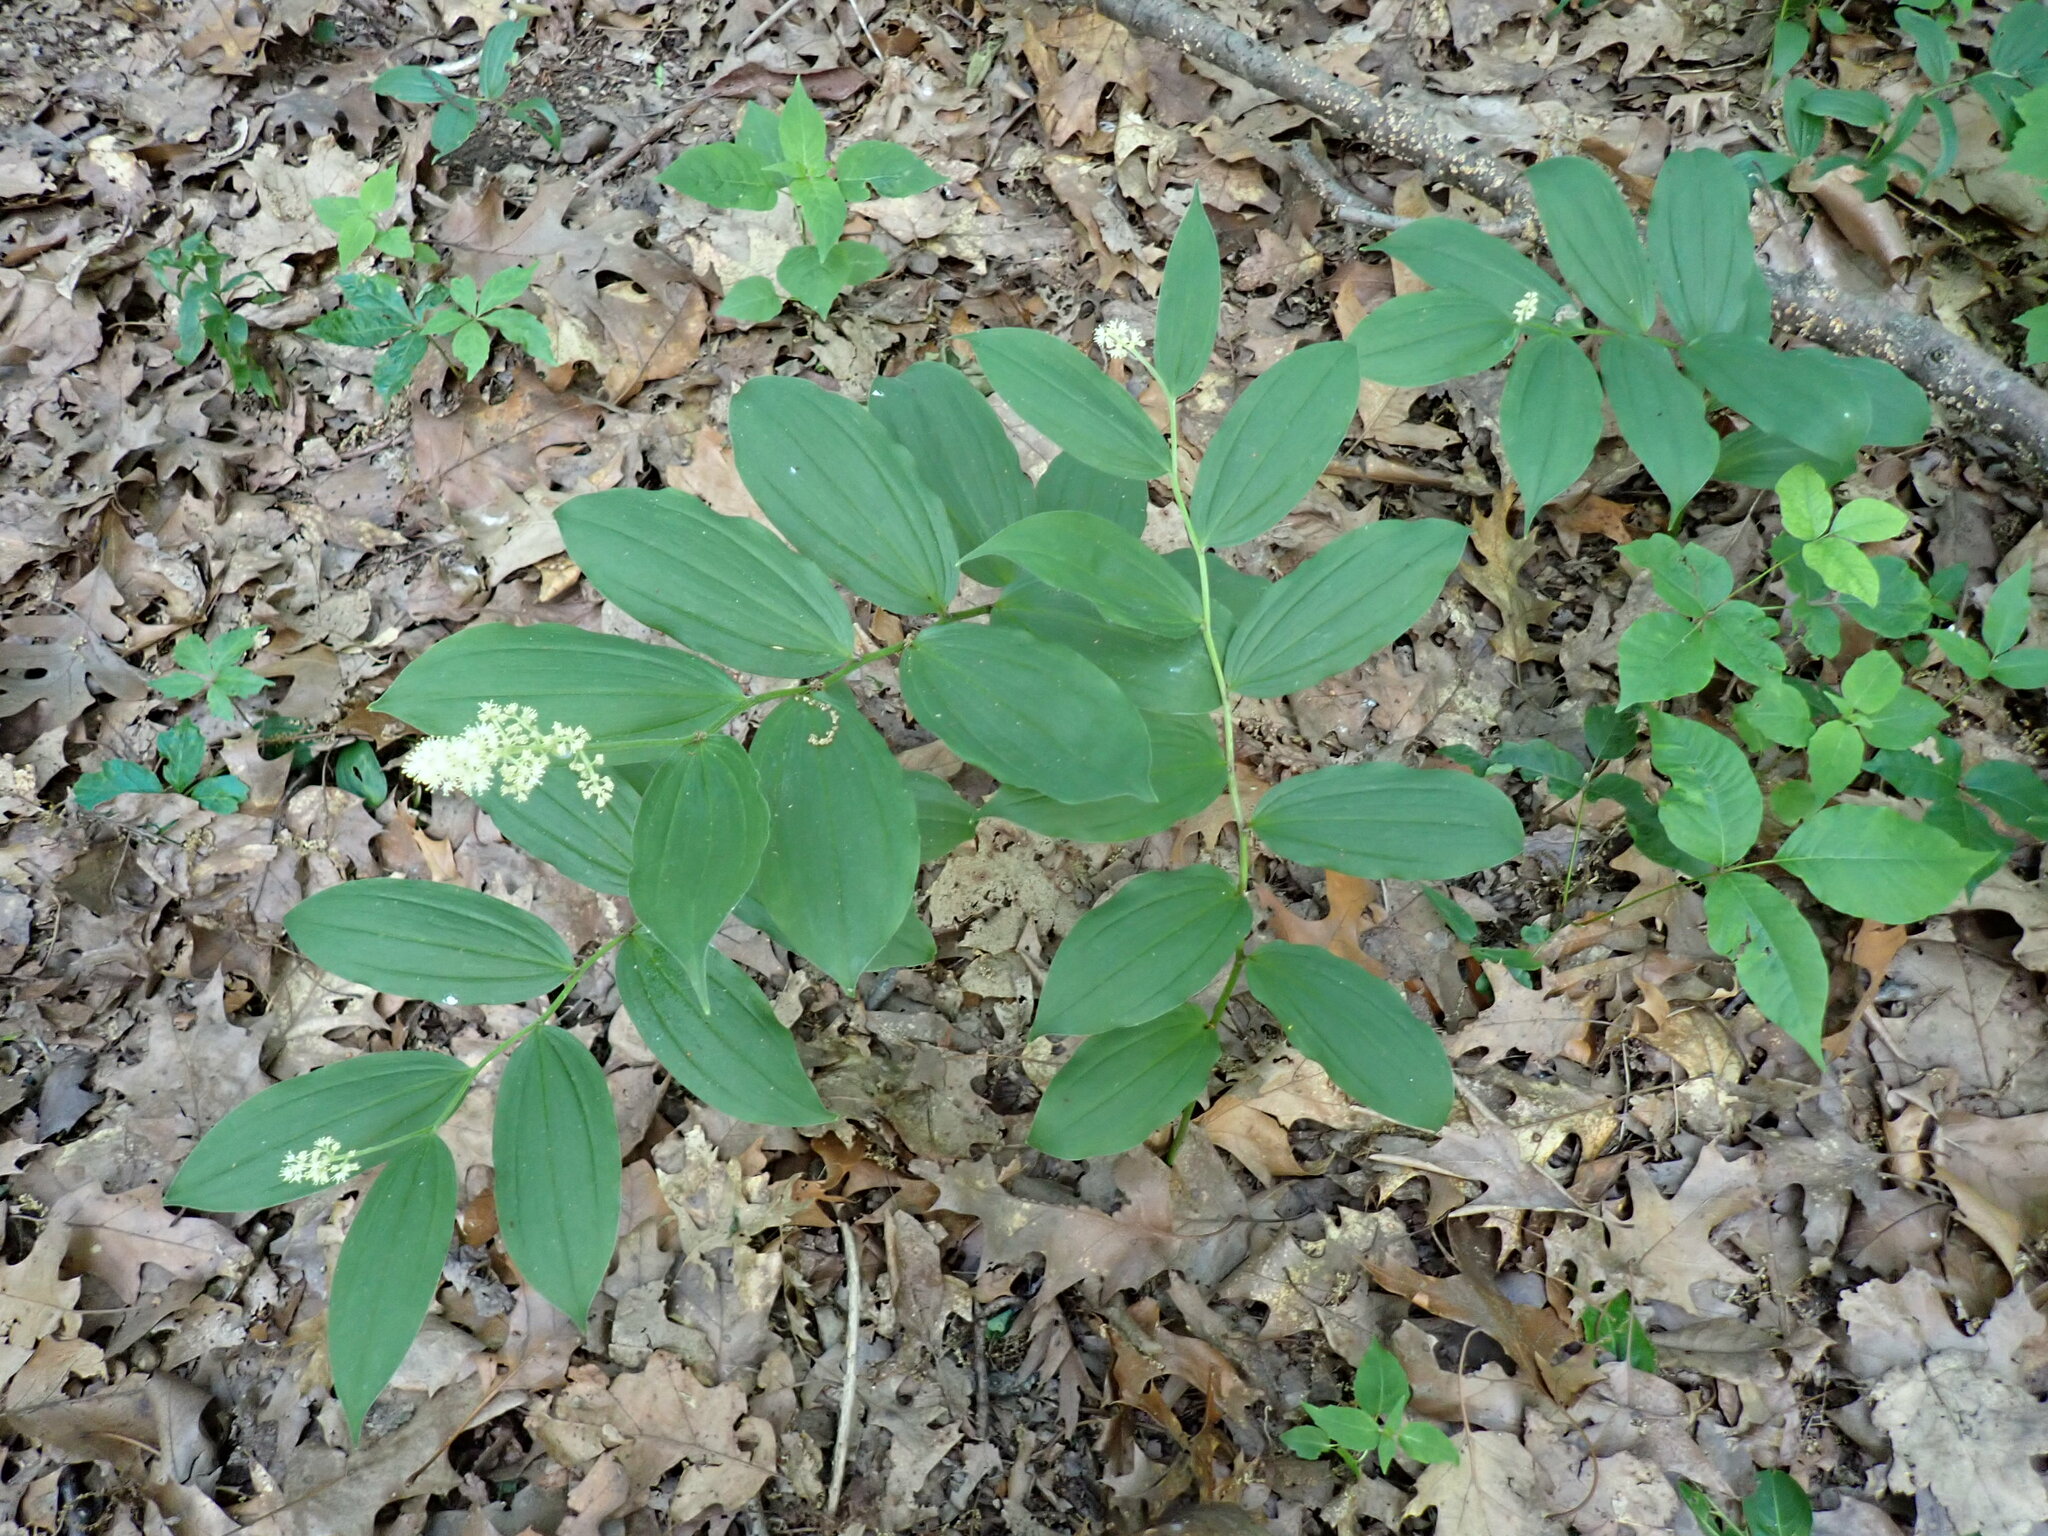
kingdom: Plantae
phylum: Tracheophyta
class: Liliopsida
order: Asparagales
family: Asparagaceae
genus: Maianthemum
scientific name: Maianthemum racemosum
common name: False spikenard
